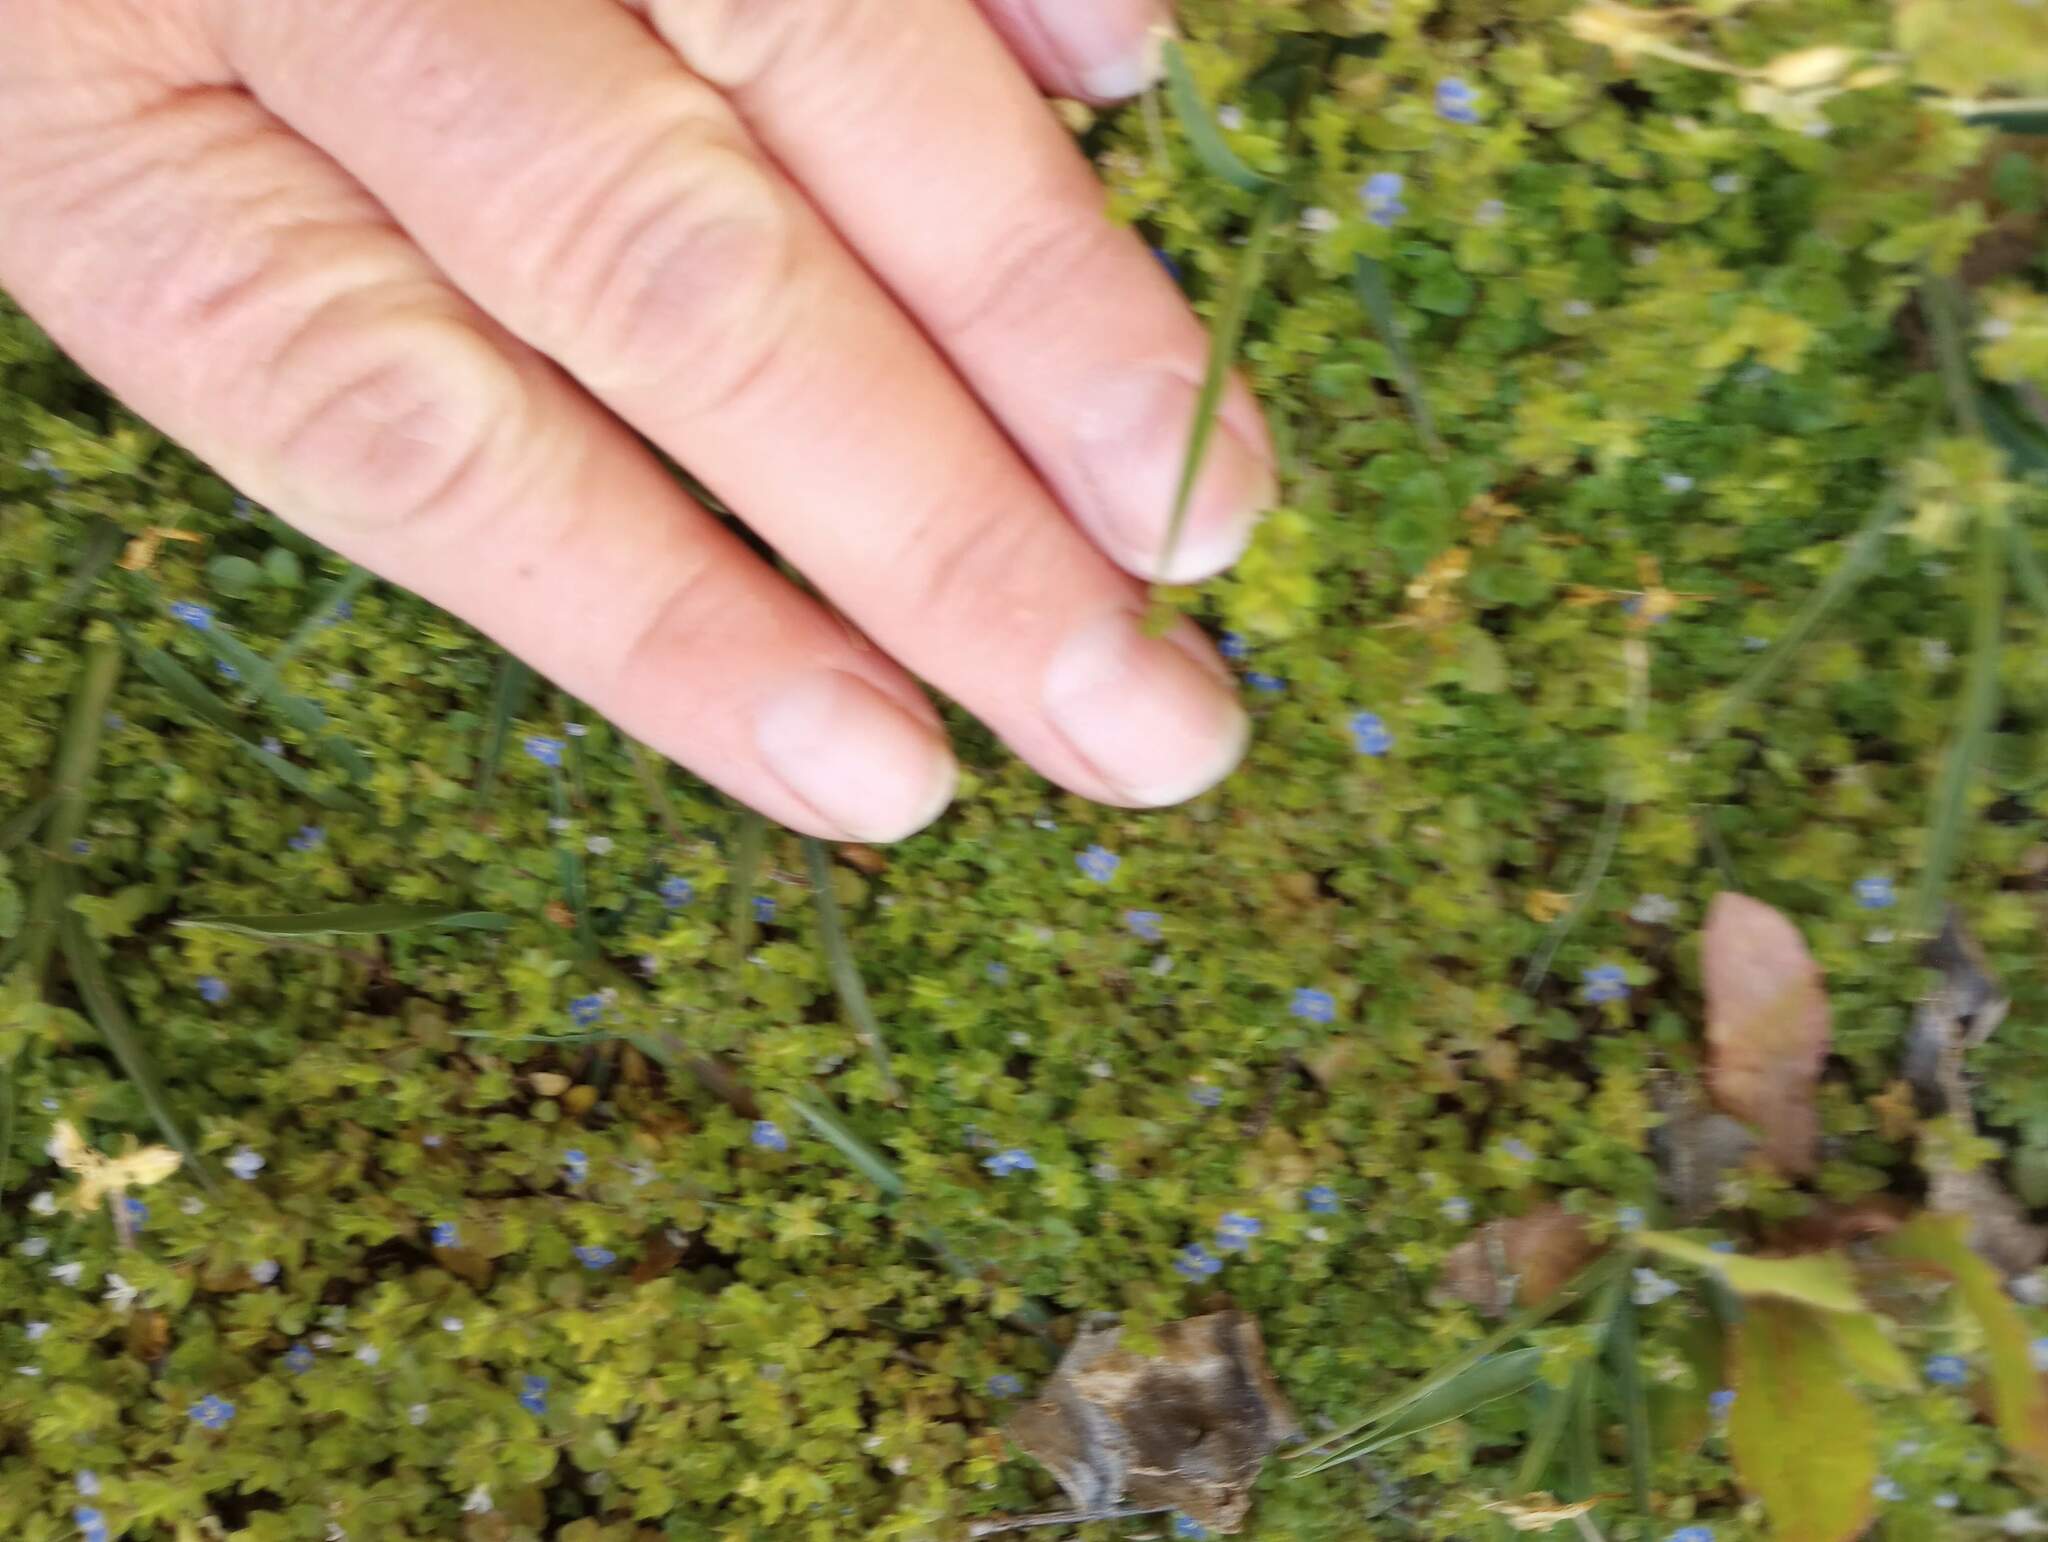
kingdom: Plantae
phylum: Tracheophyta
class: Magnoliopsida
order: Lamiales
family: Plantaginaceae
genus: Veronica
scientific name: Veronica arvensis
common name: Corn speedwell
